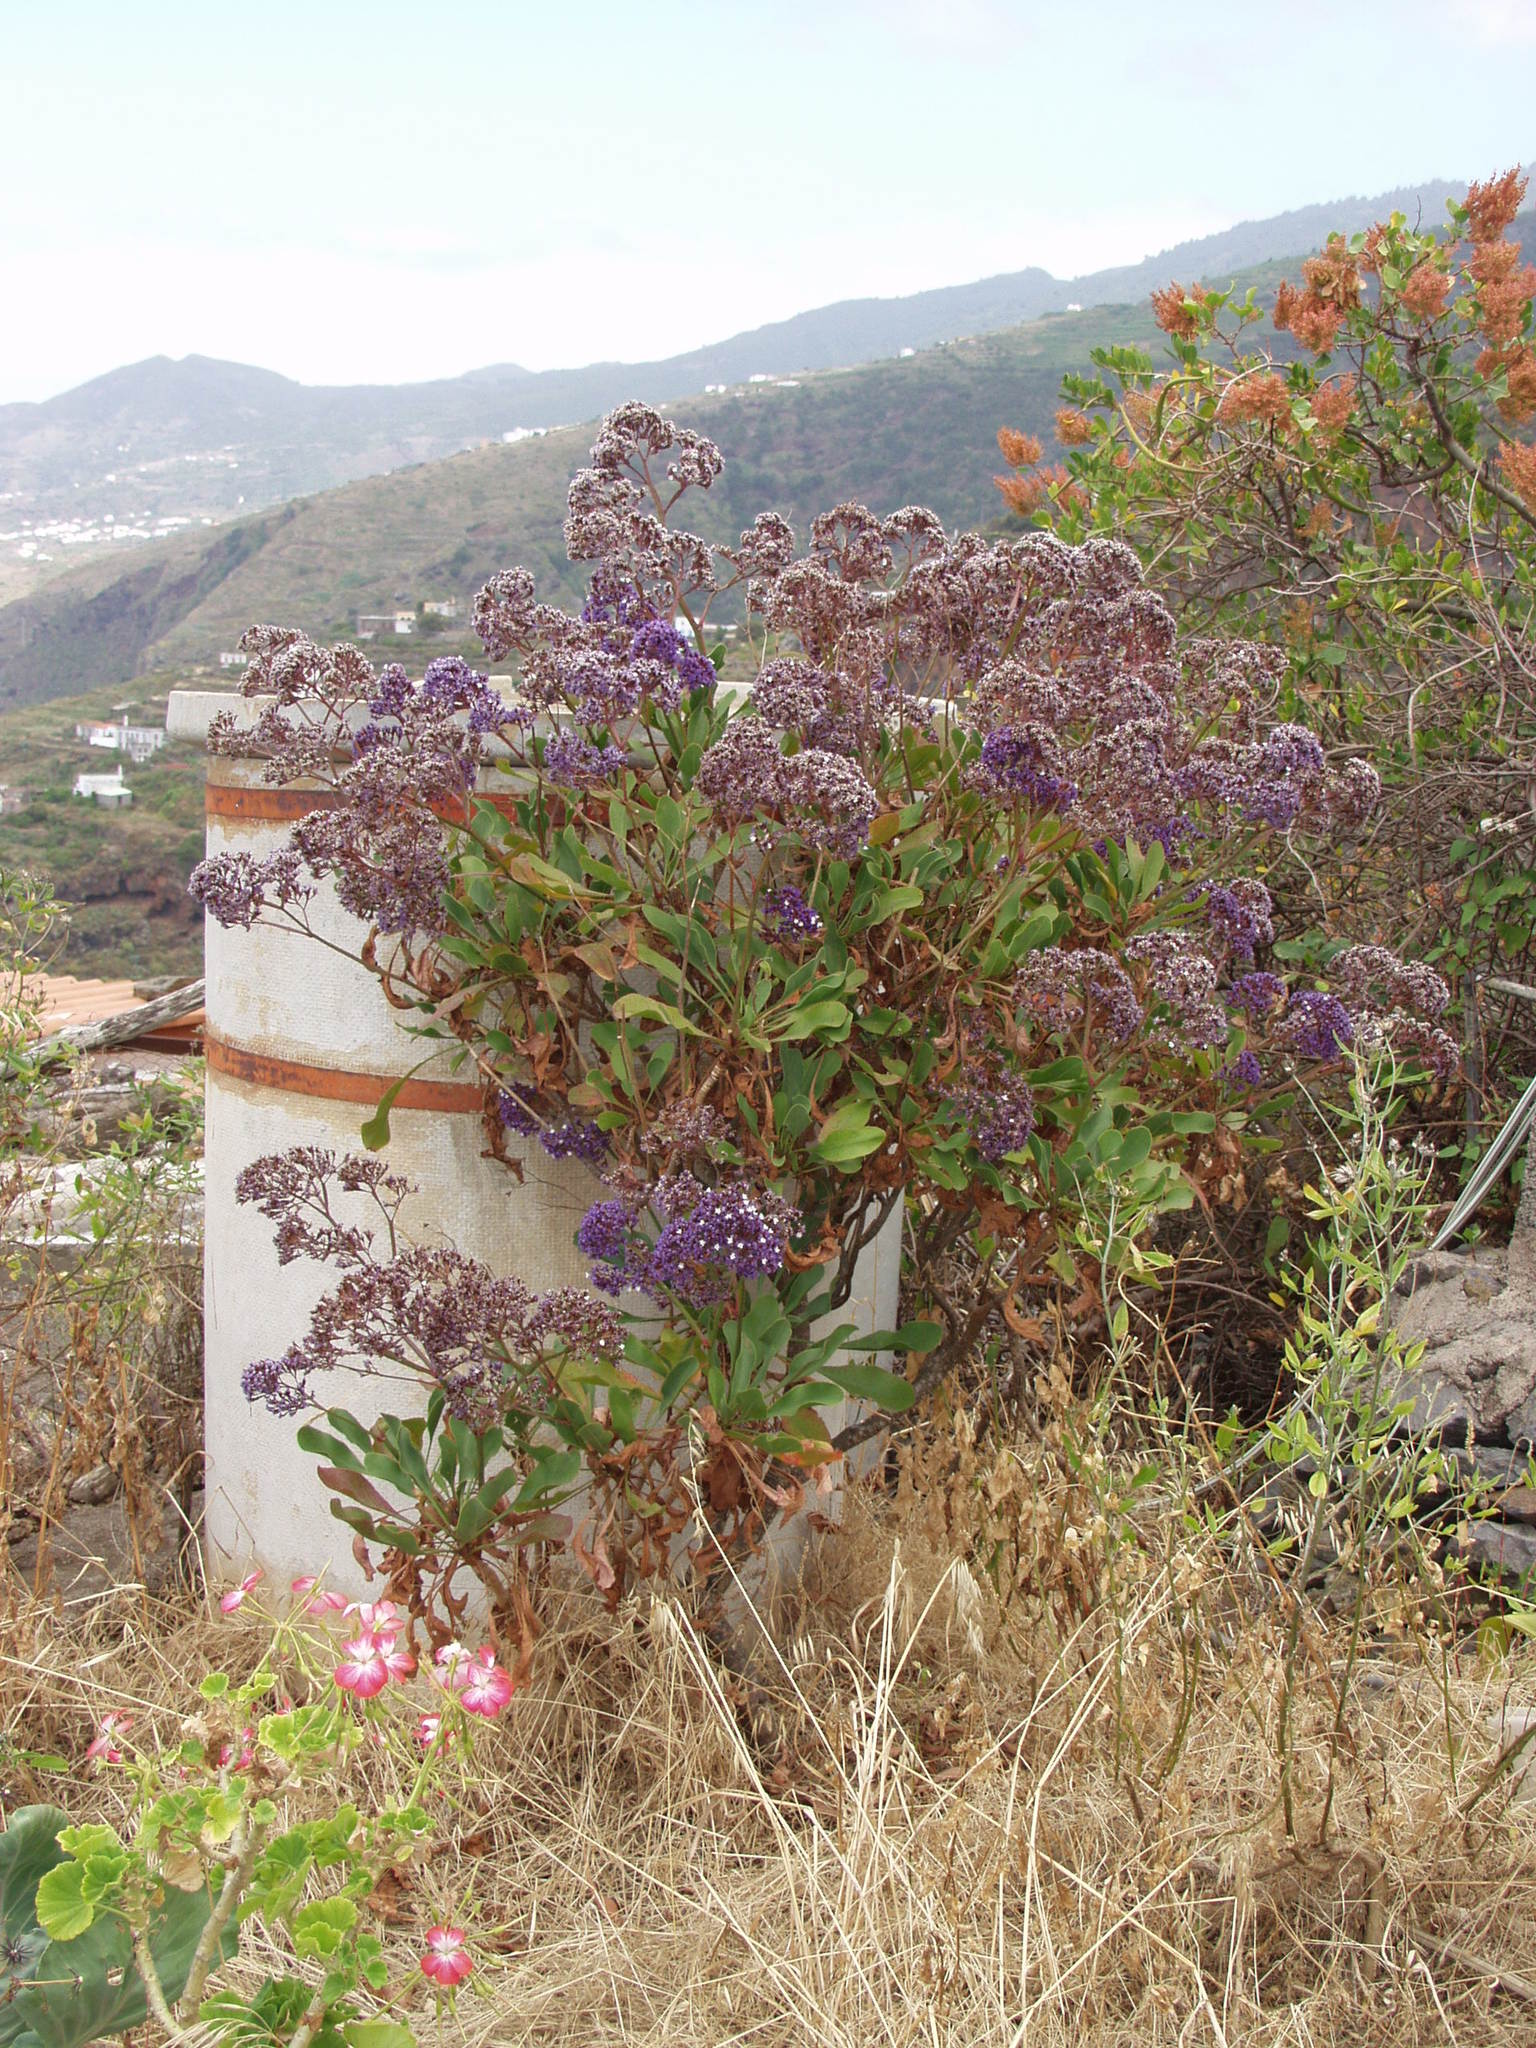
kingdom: Plantae
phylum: Tracheophyta
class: Magnoliopsida
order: Caryophyllales
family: Plumbaginaceae
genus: Limonium
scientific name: Limonium arboreum
